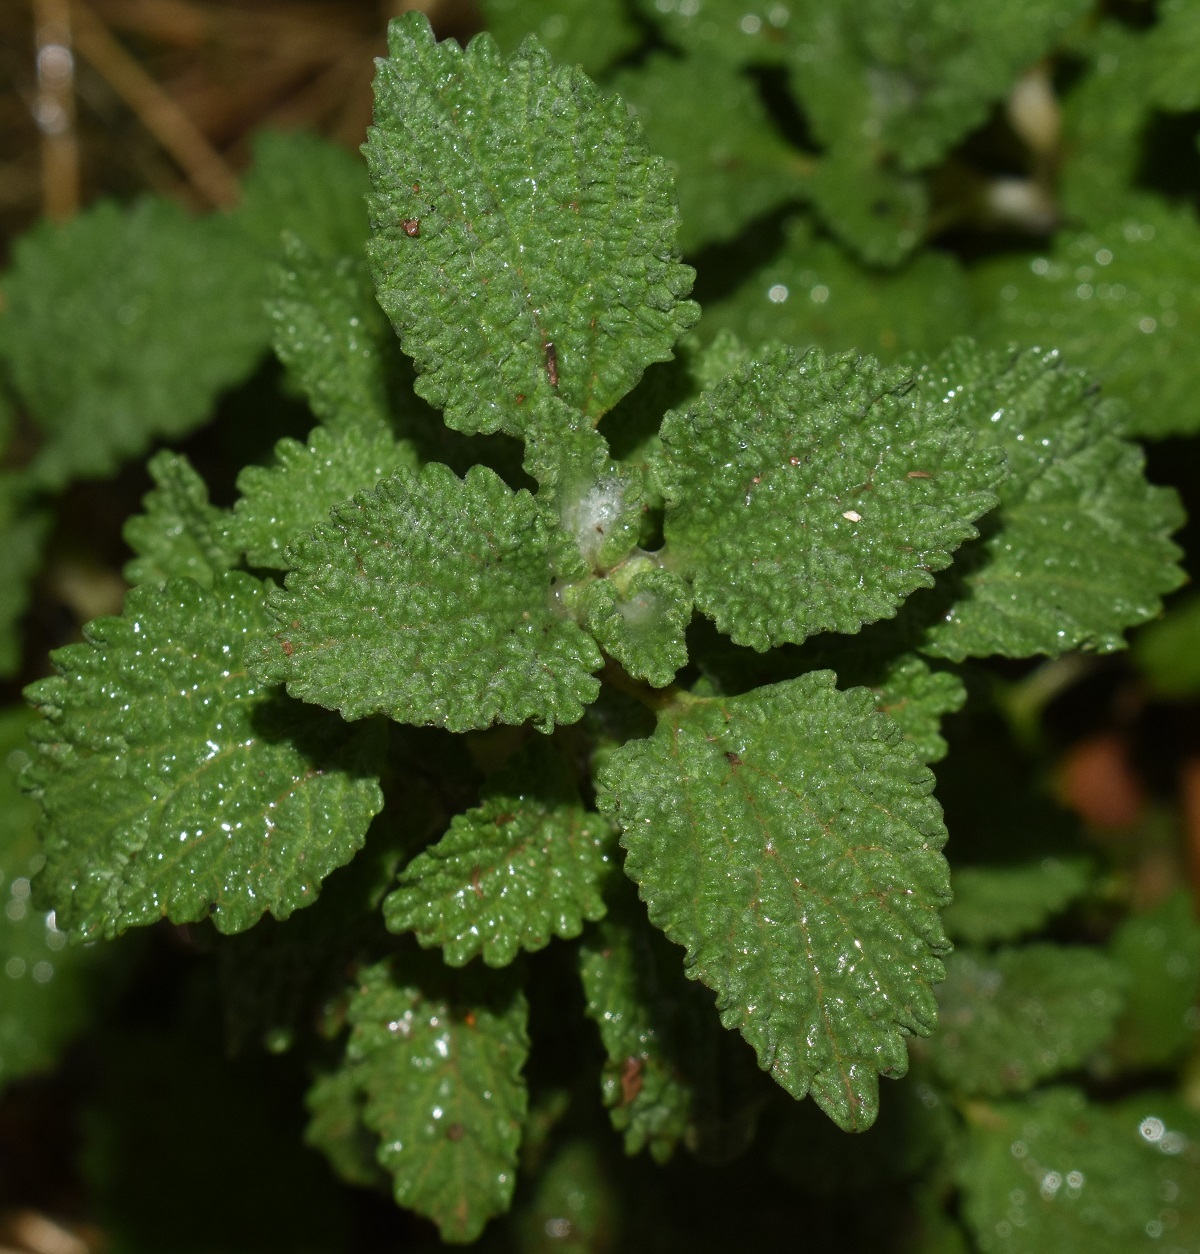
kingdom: Plantae
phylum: Tracheophyta
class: Magnoliopsida
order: Lamiales
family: Lamiaceae
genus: Marrubium
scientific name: Marrubium vulgare
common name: Horehound
